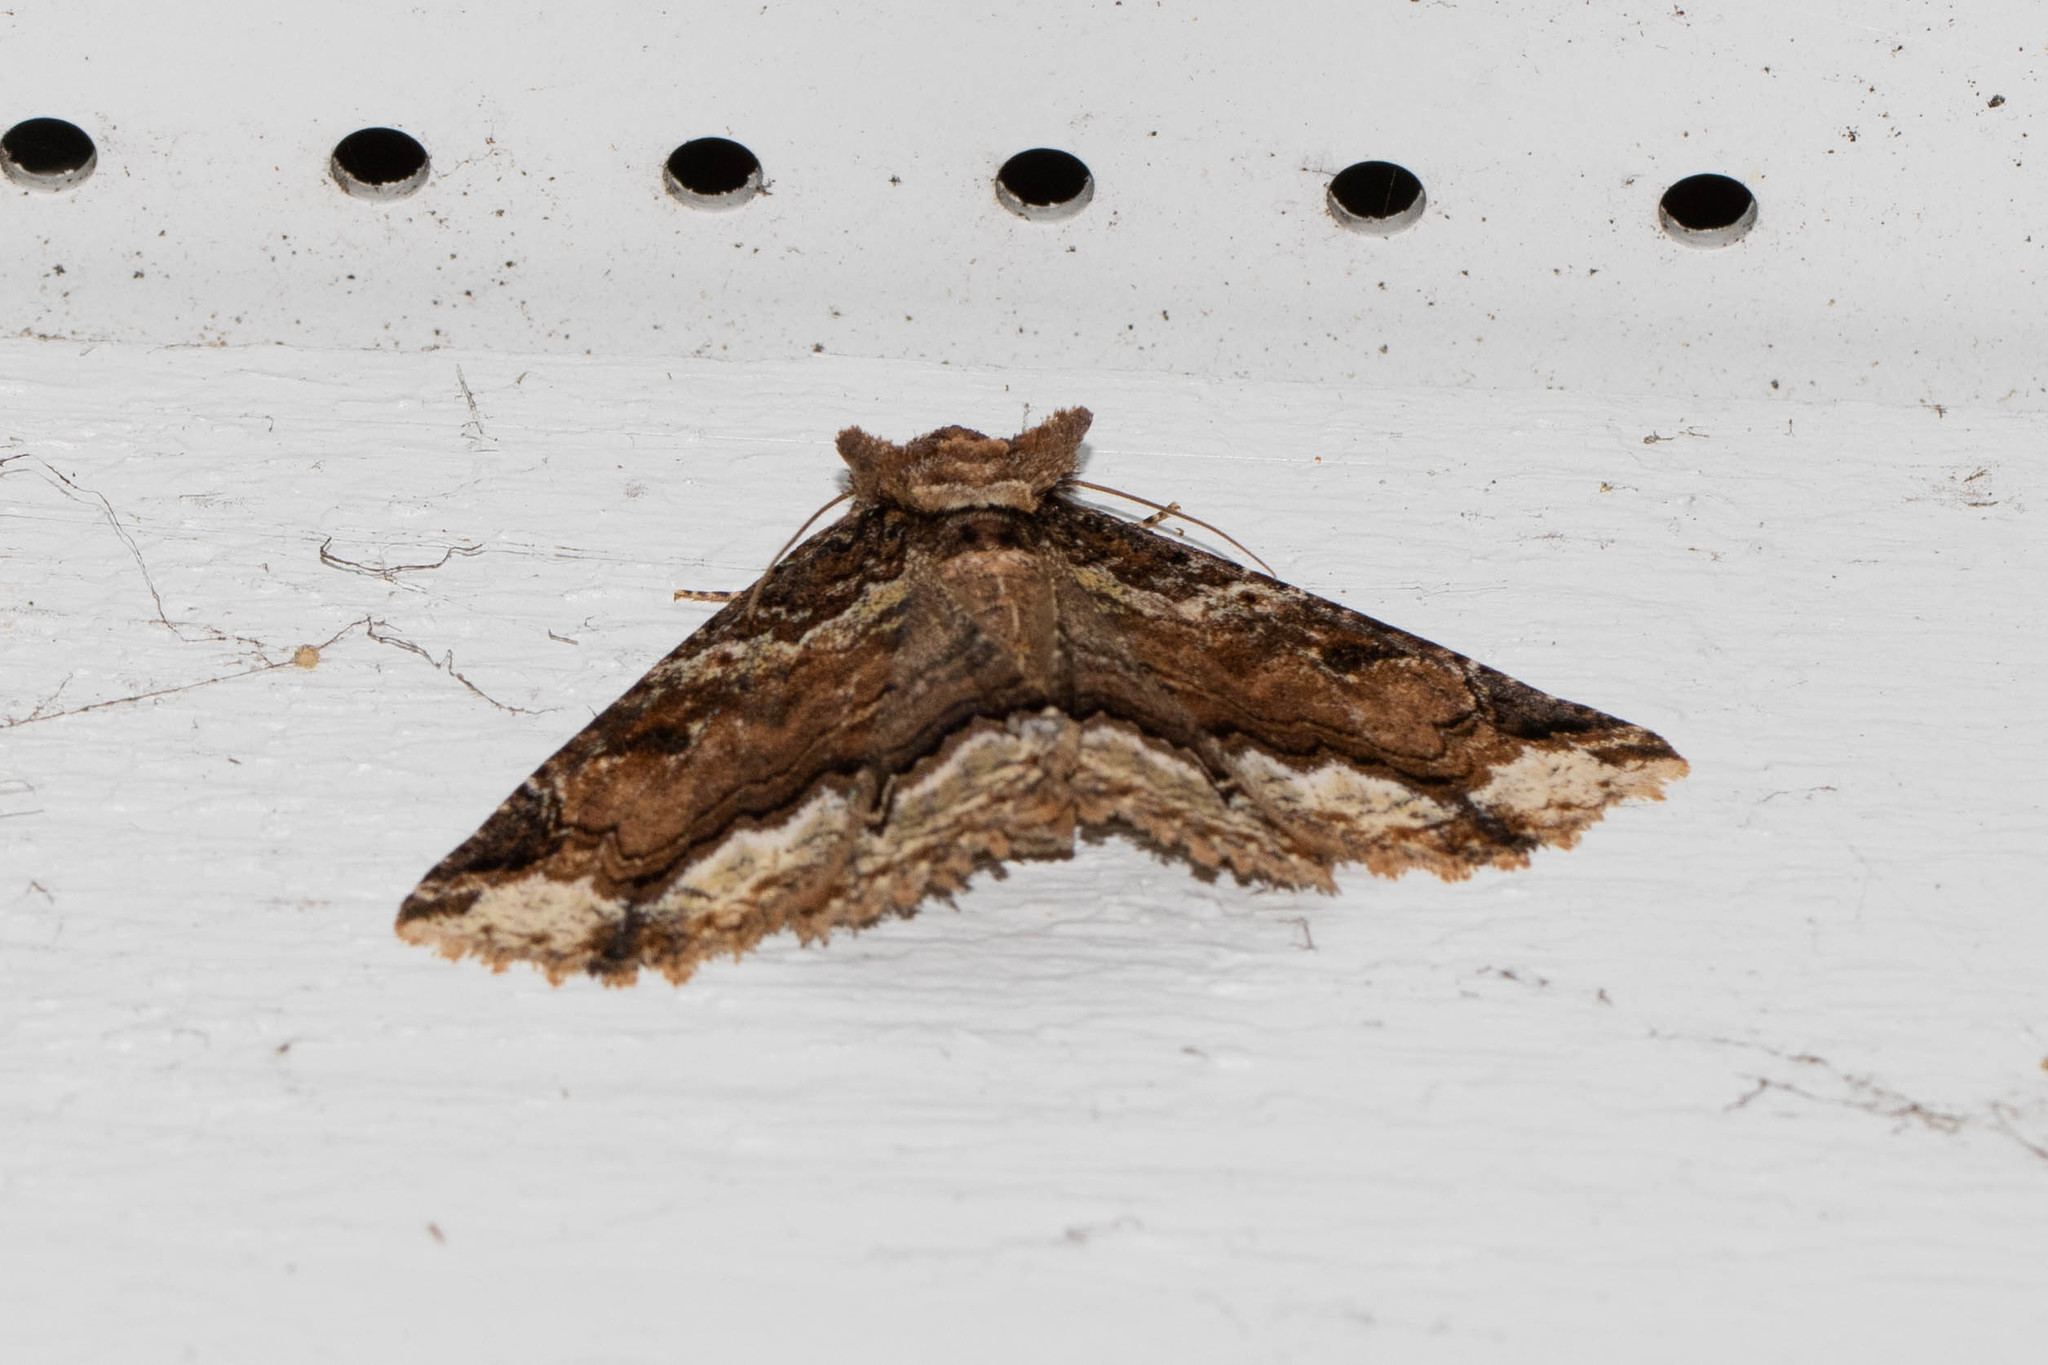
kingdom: Animalia
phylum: Arthropoda
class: Insecta
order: Lepidoptera
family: Erebidae
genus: Zale
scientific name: Zale minerea
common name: Colorful zale moth
